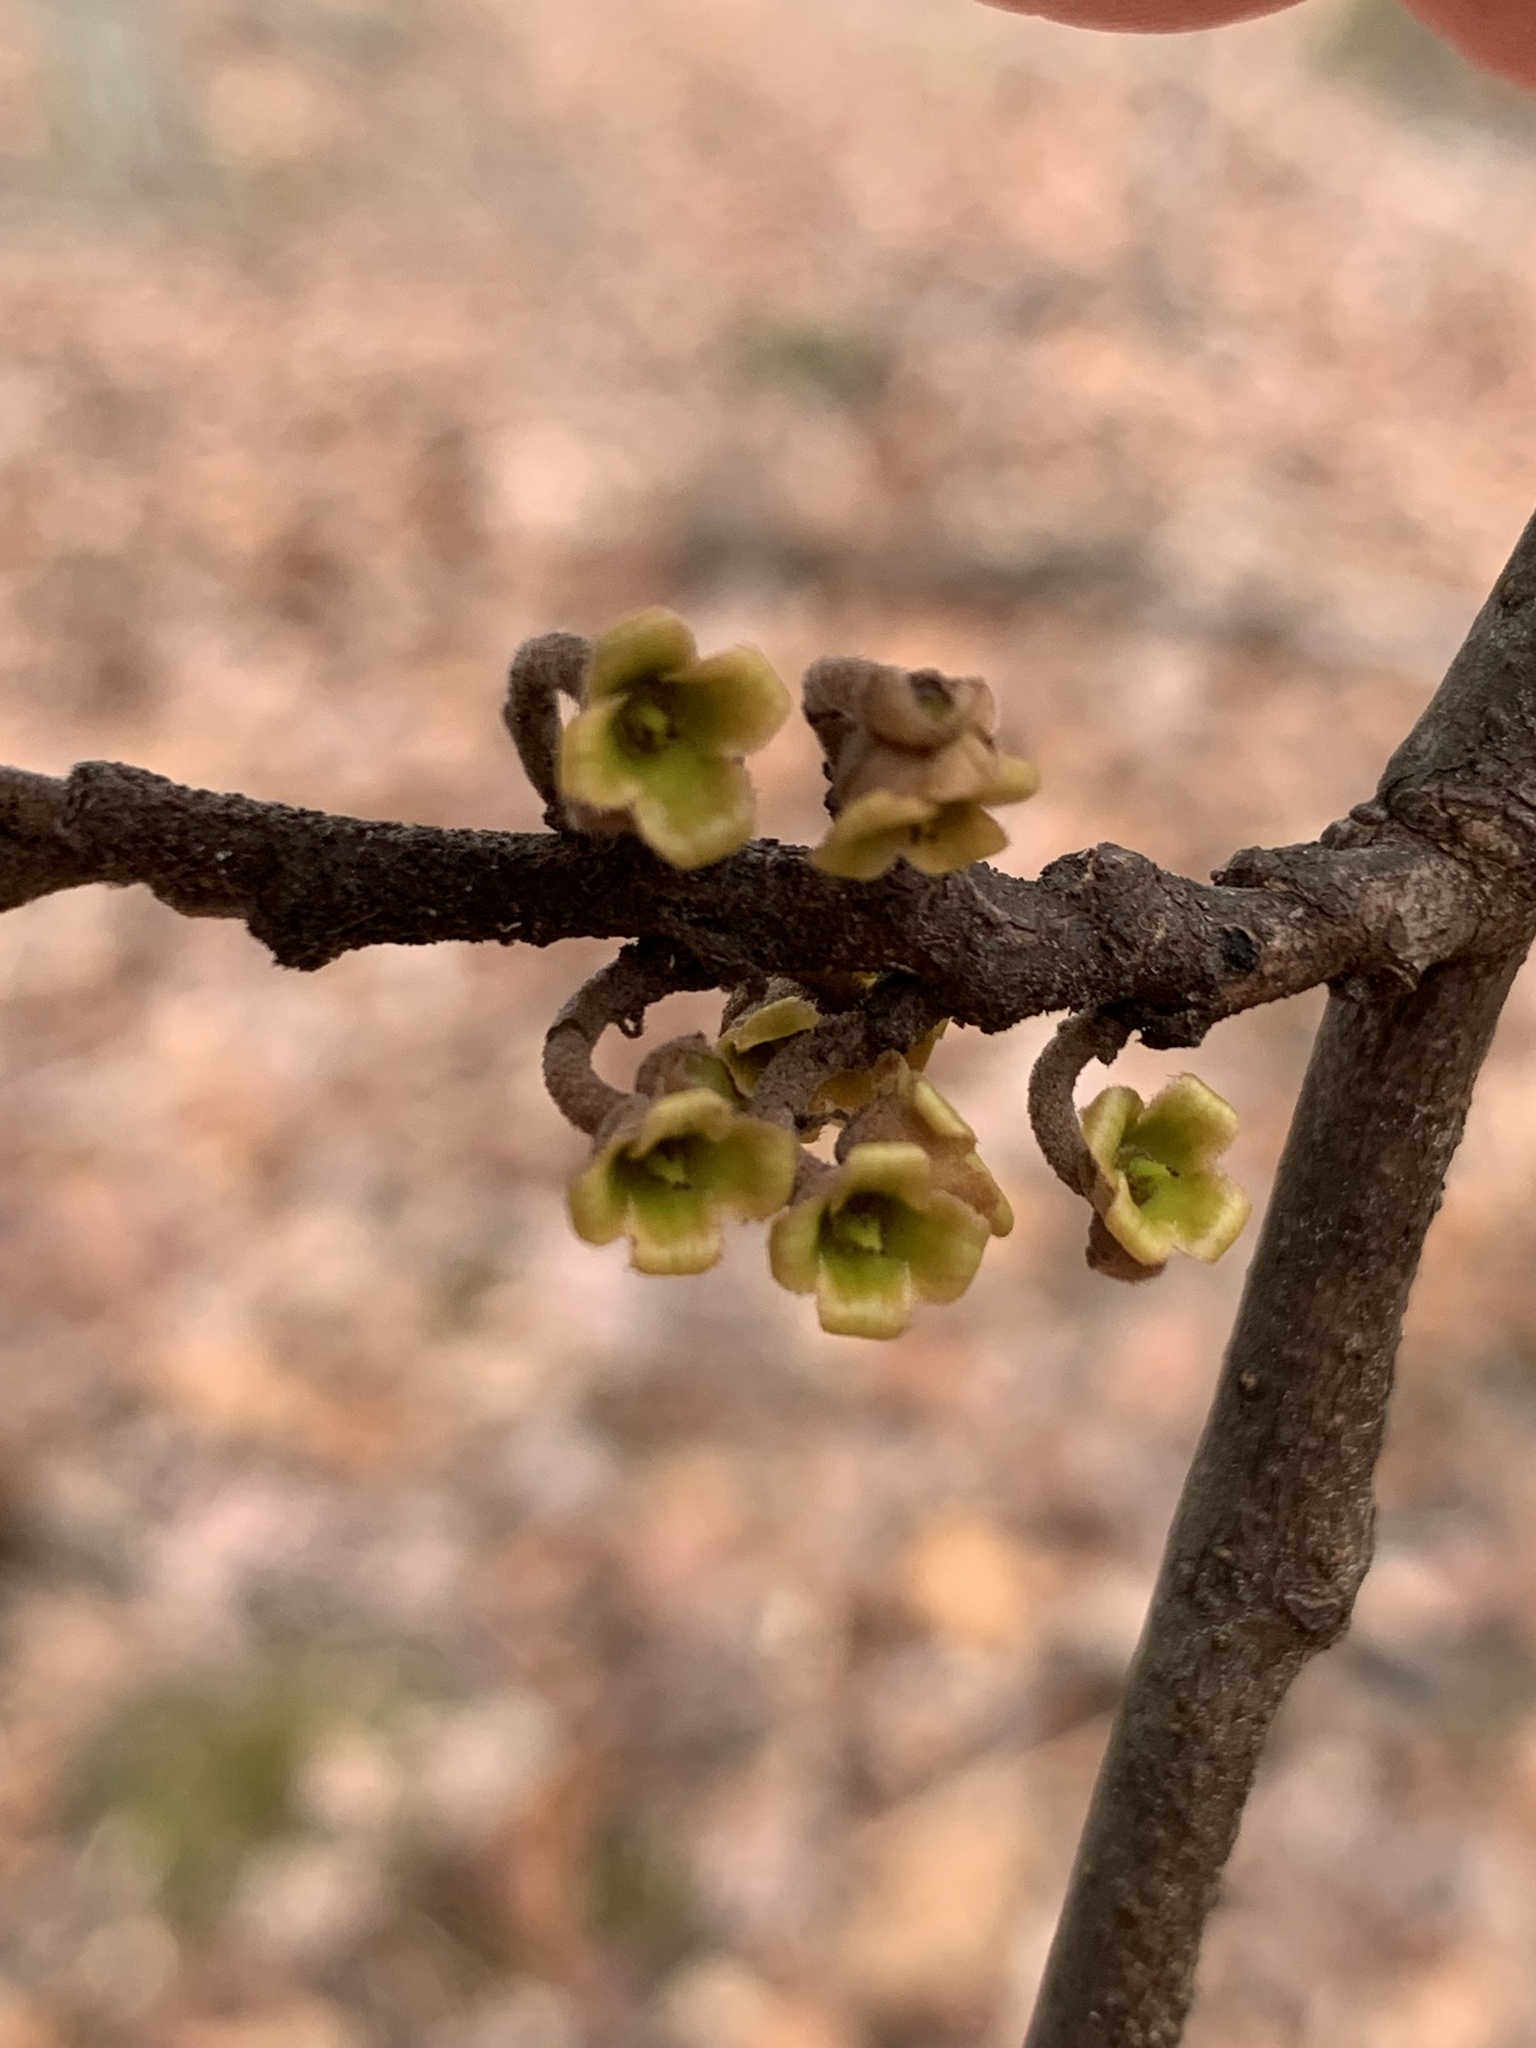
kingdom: Plantae
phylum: Tracheophyta
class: Magnoliopsida
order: Saxifragales
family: Hamamelidaceae
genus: Hamamelis
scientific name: Hamamelis virginiana
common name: Witch-hazel
